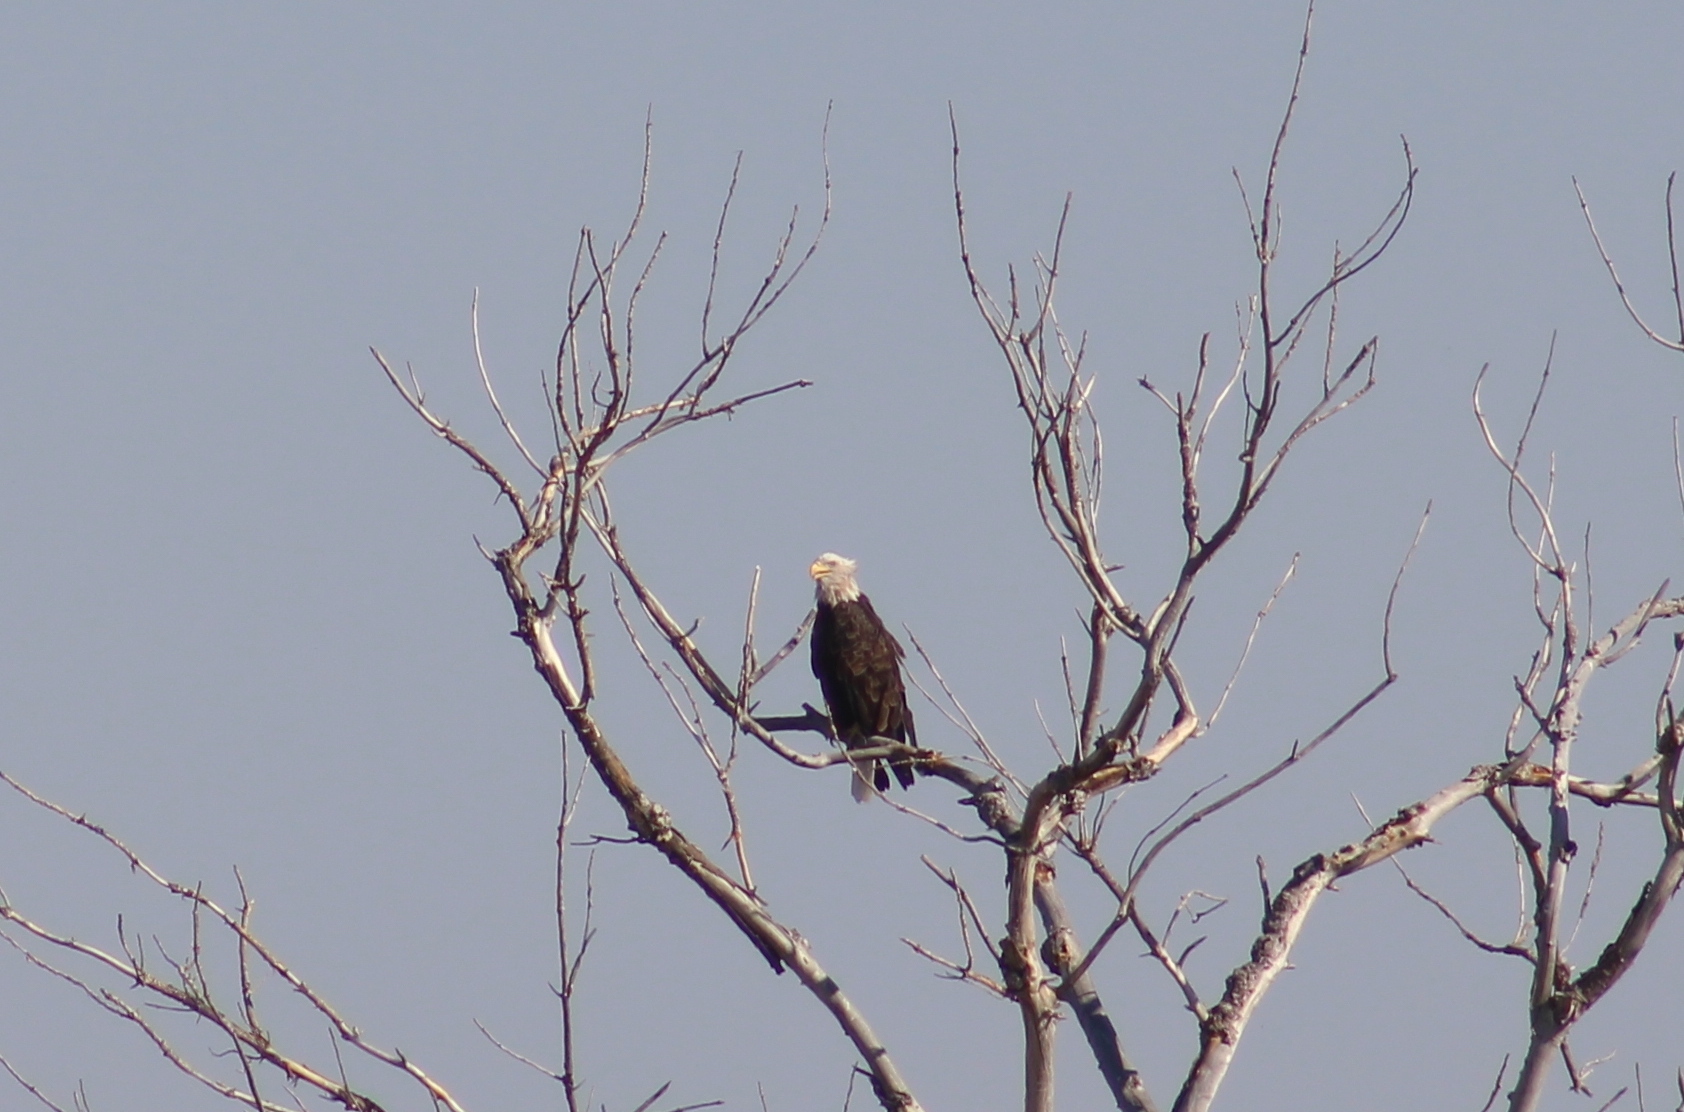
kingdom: Animalia
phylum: Chordata
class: Aves
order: Accipitriformes
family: Accipitridae
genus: Haliaeetus
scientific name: Haliaeetus leucocephalus
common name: Bald eagle
